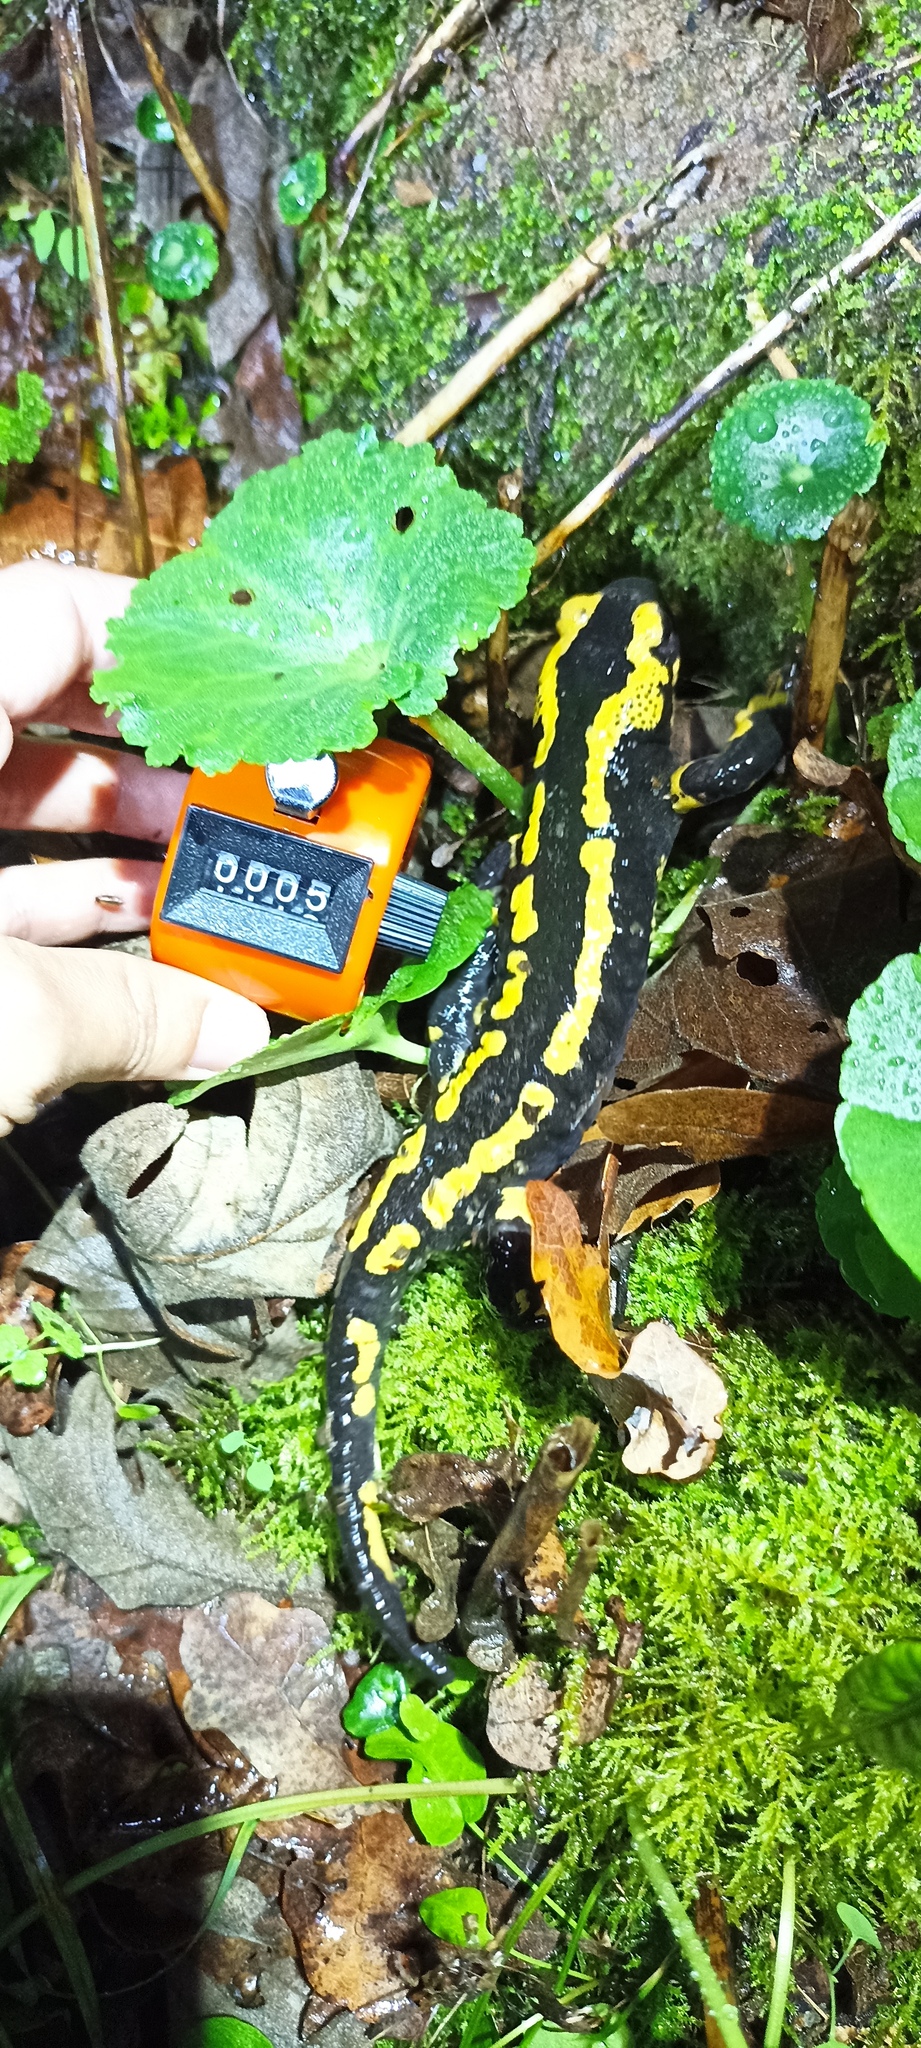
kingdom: Animalia
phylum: Chordata
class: Amphibia
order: Caudata
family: Salamandridae
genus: Salamandra
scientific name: Salamandra salamandra
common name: Fire salamander
